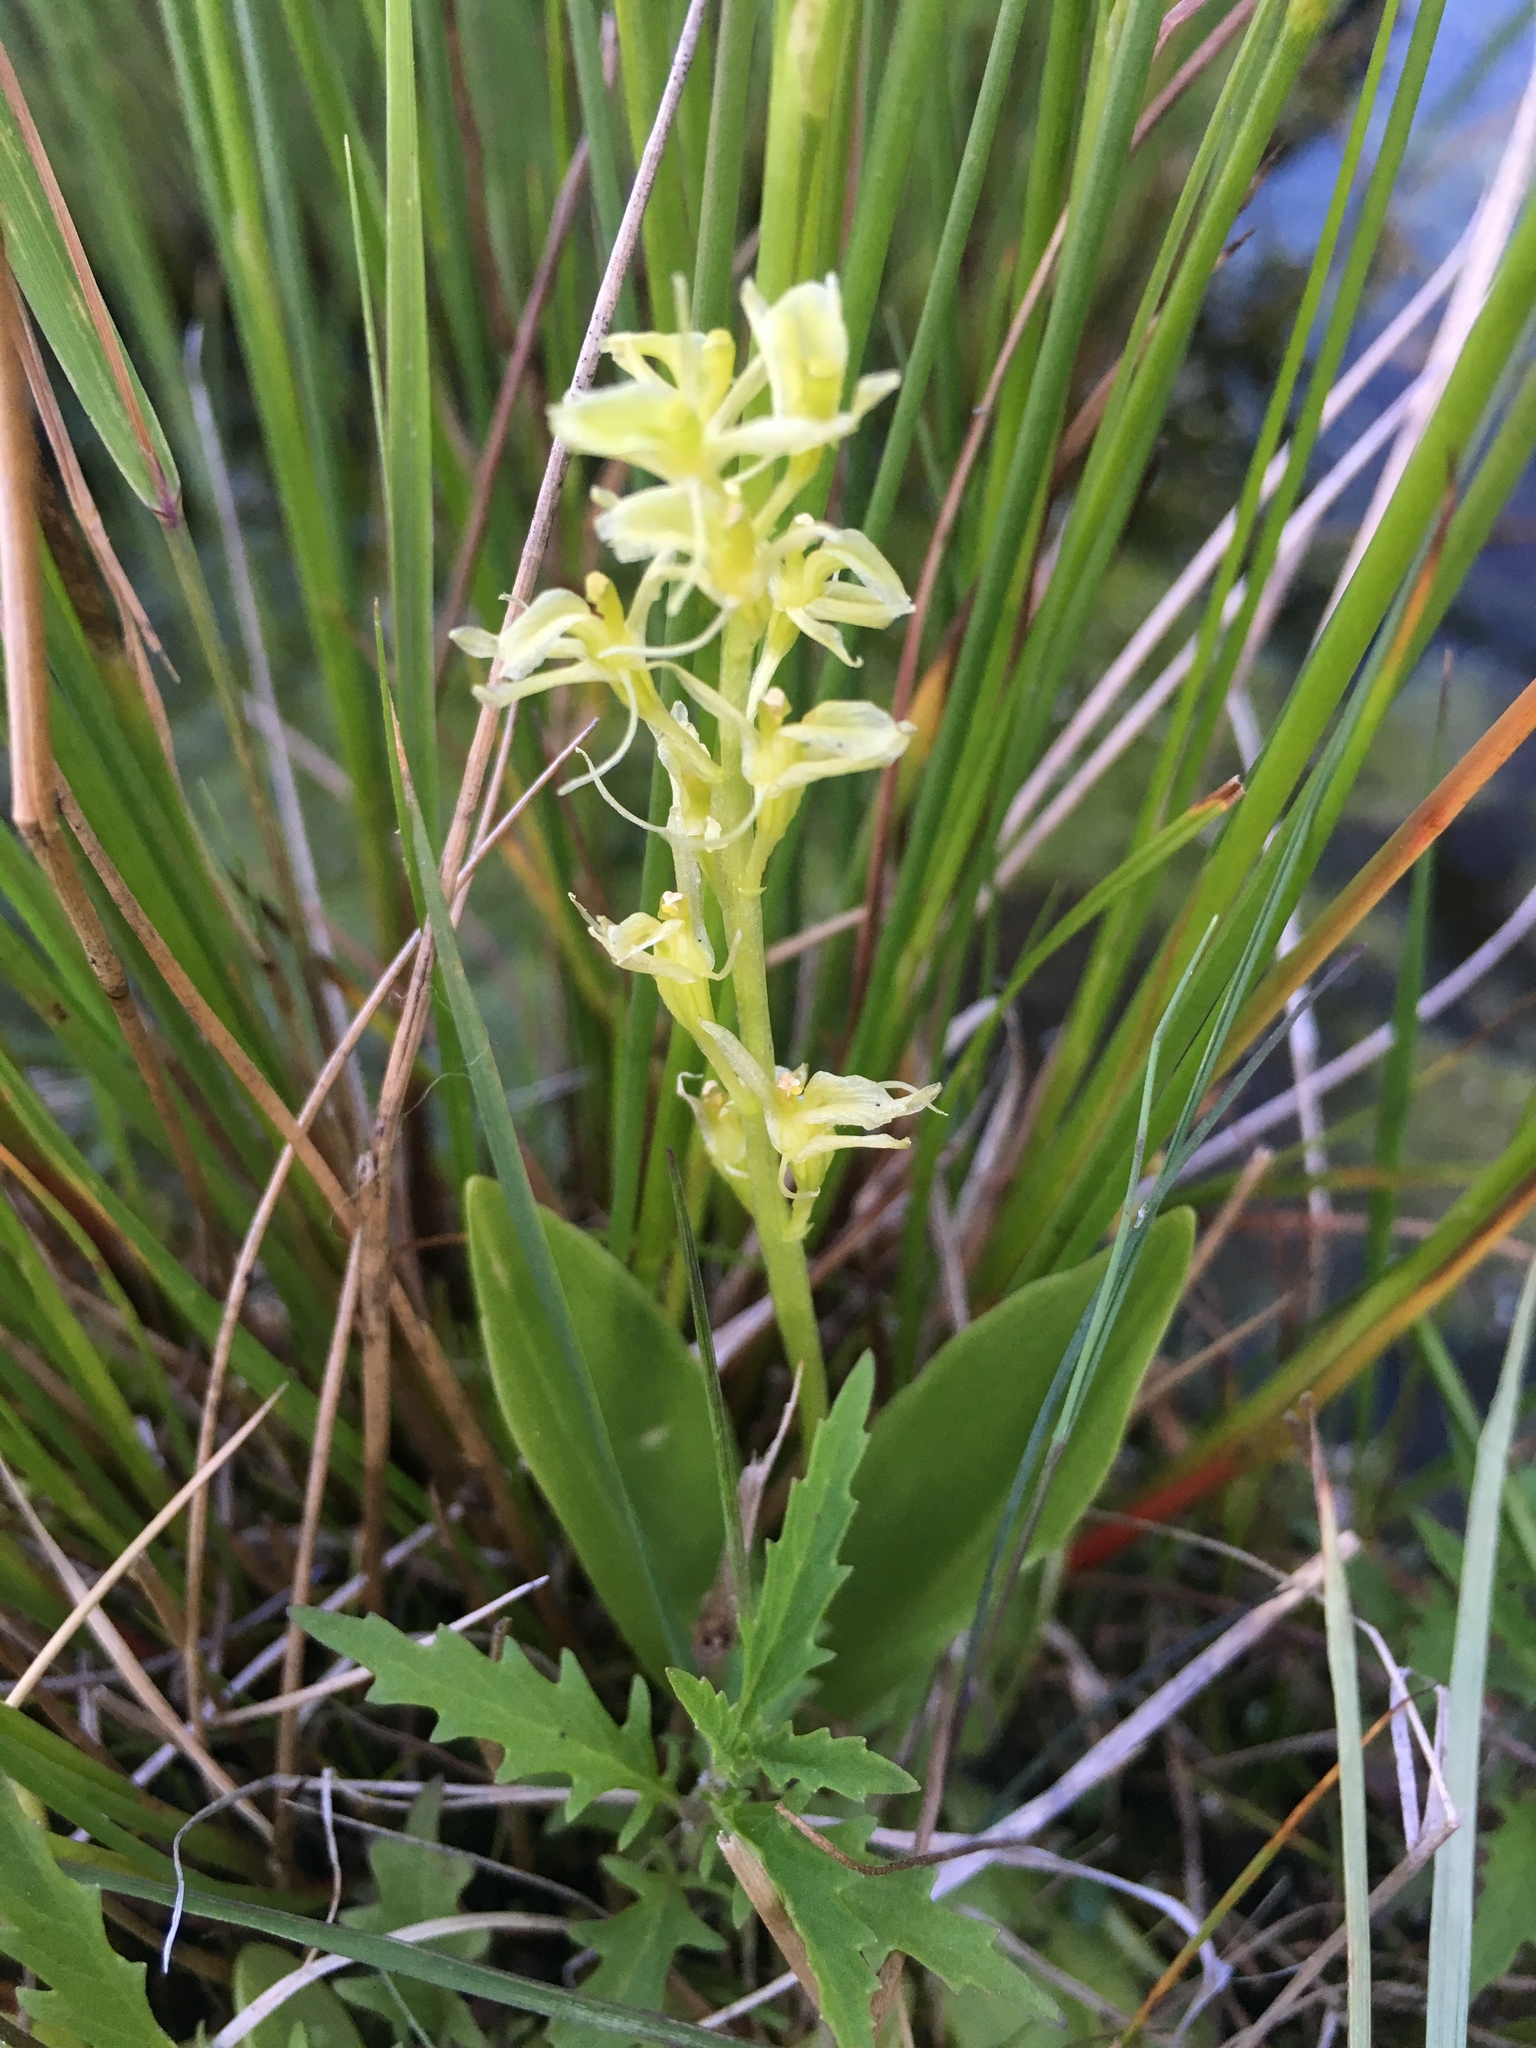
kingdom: Animalia
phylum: Arthropoda
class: Insecta
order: Coleoptera
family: Curculionidae
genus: Liparis
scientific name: Liparis loeselii
